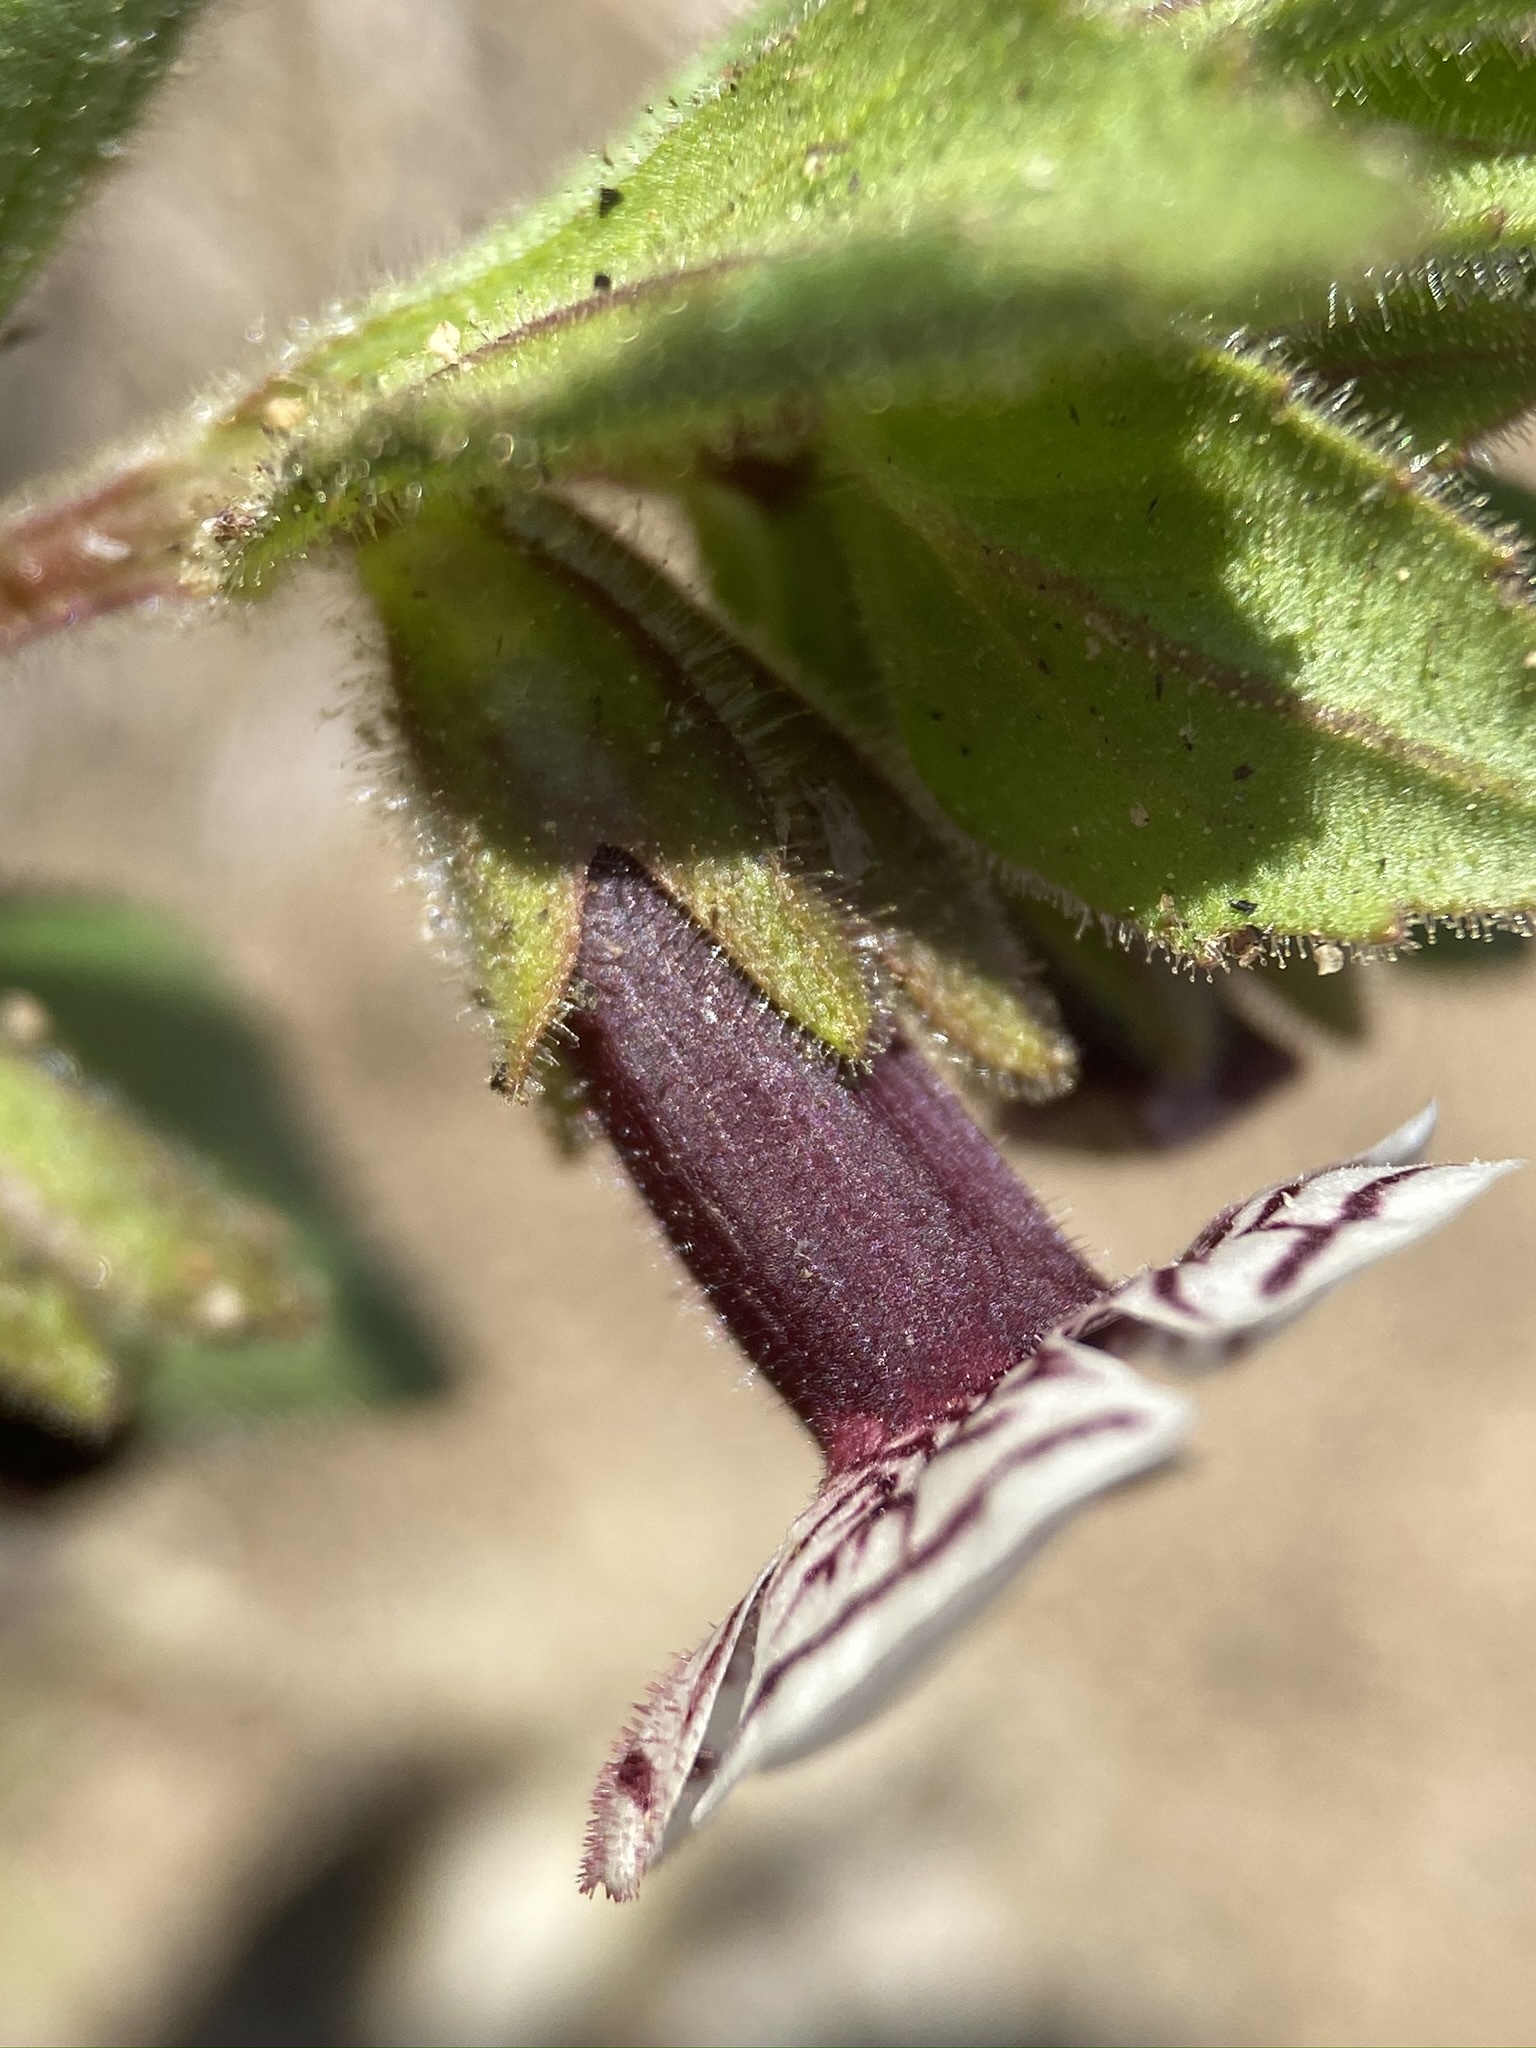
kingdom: Plantae
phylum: Tracheophyta
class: Magnoliopsida
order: Lamiales
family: Phrymaceae
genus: Diplacus
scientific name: Diplacus pictus
